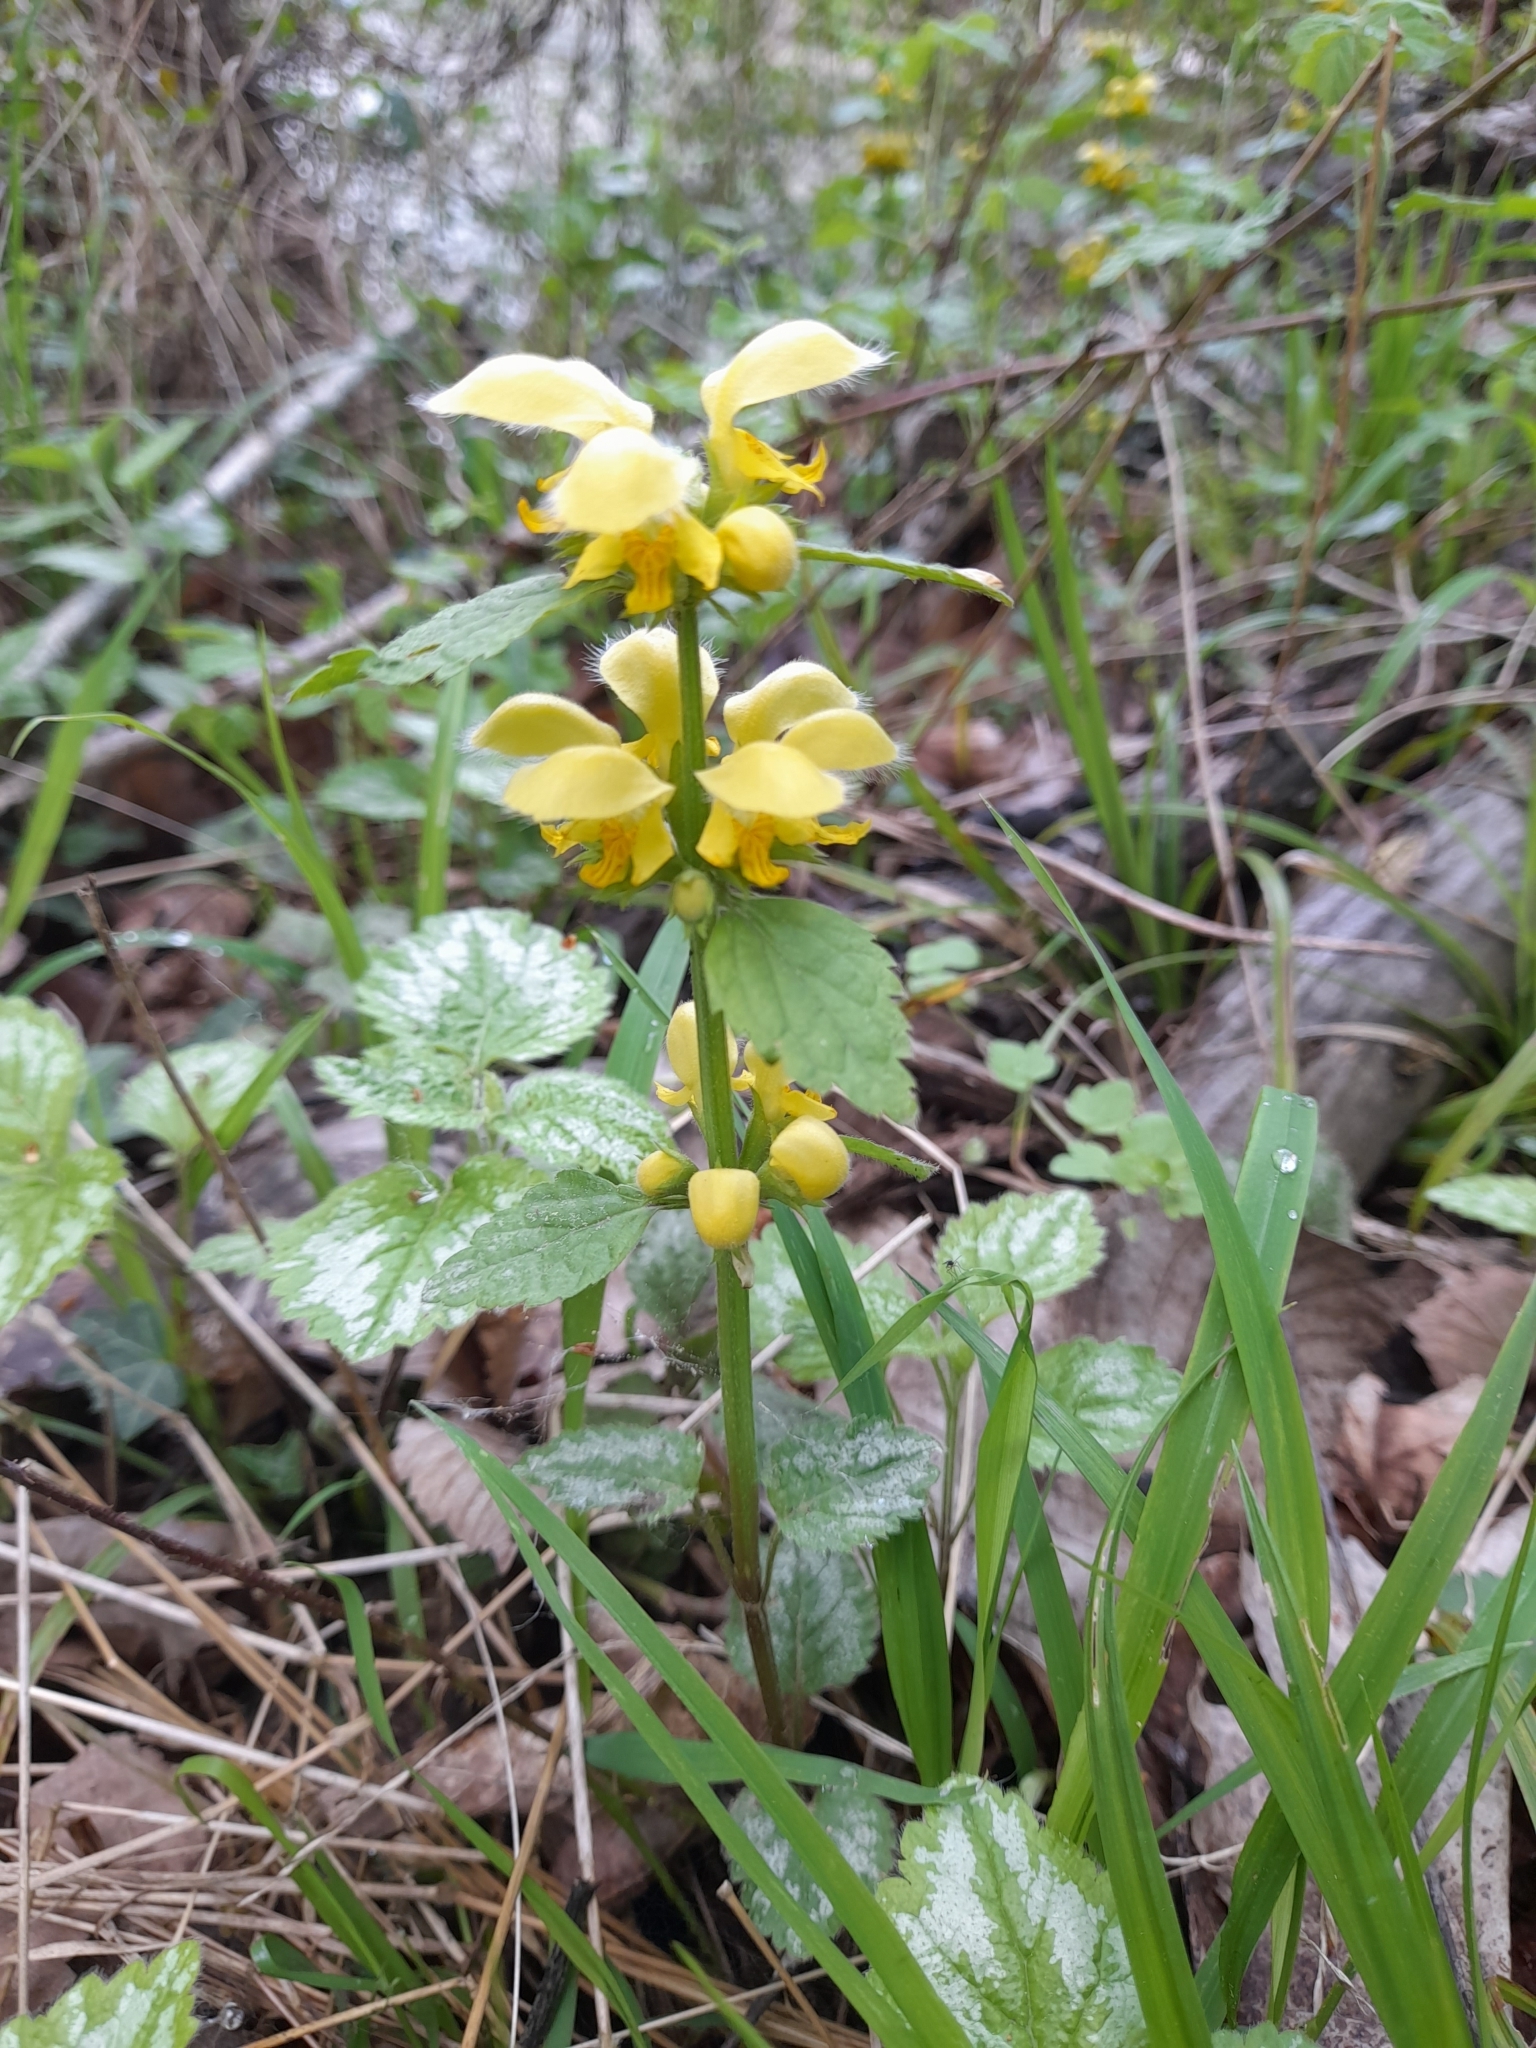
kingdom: Plantae
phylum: Tracheophyta
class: Magnoliopsida
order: Lamiales
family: Lamiaceae
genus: Lamium
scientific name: Lamium galeobdolon
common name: Yellow archangel
